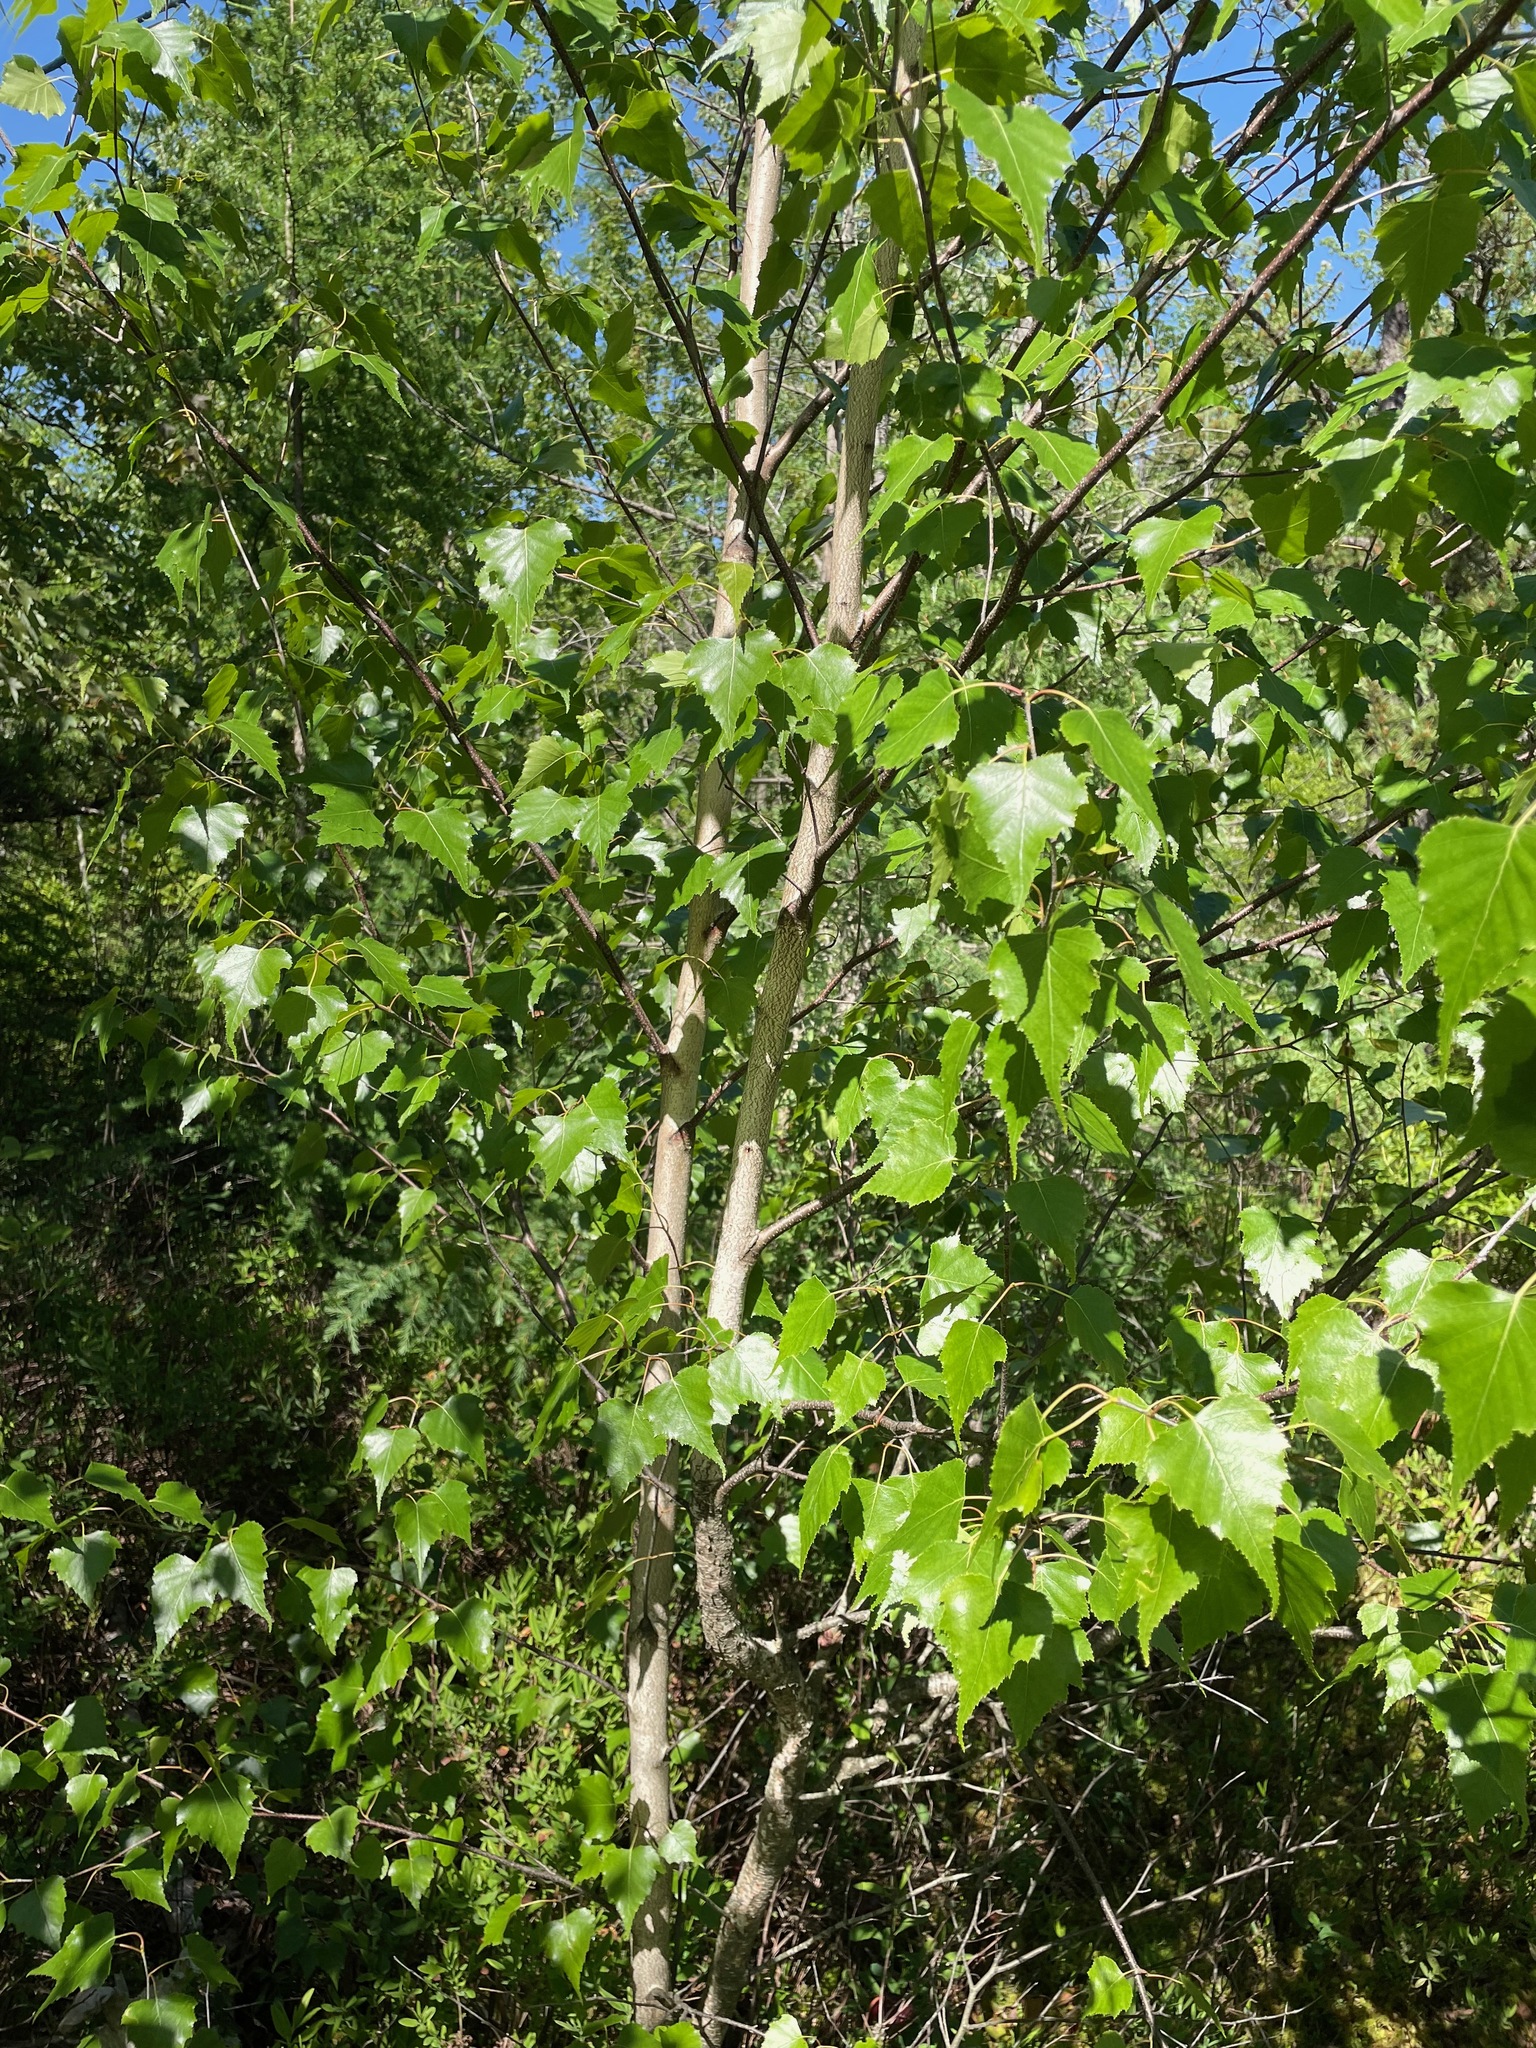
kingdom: Plantae
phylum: Tracheophyta
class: Magnoliopsida
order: Fagales
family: Betulaceae
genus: Betula
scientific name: Betula populifolia
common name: Fire birch
